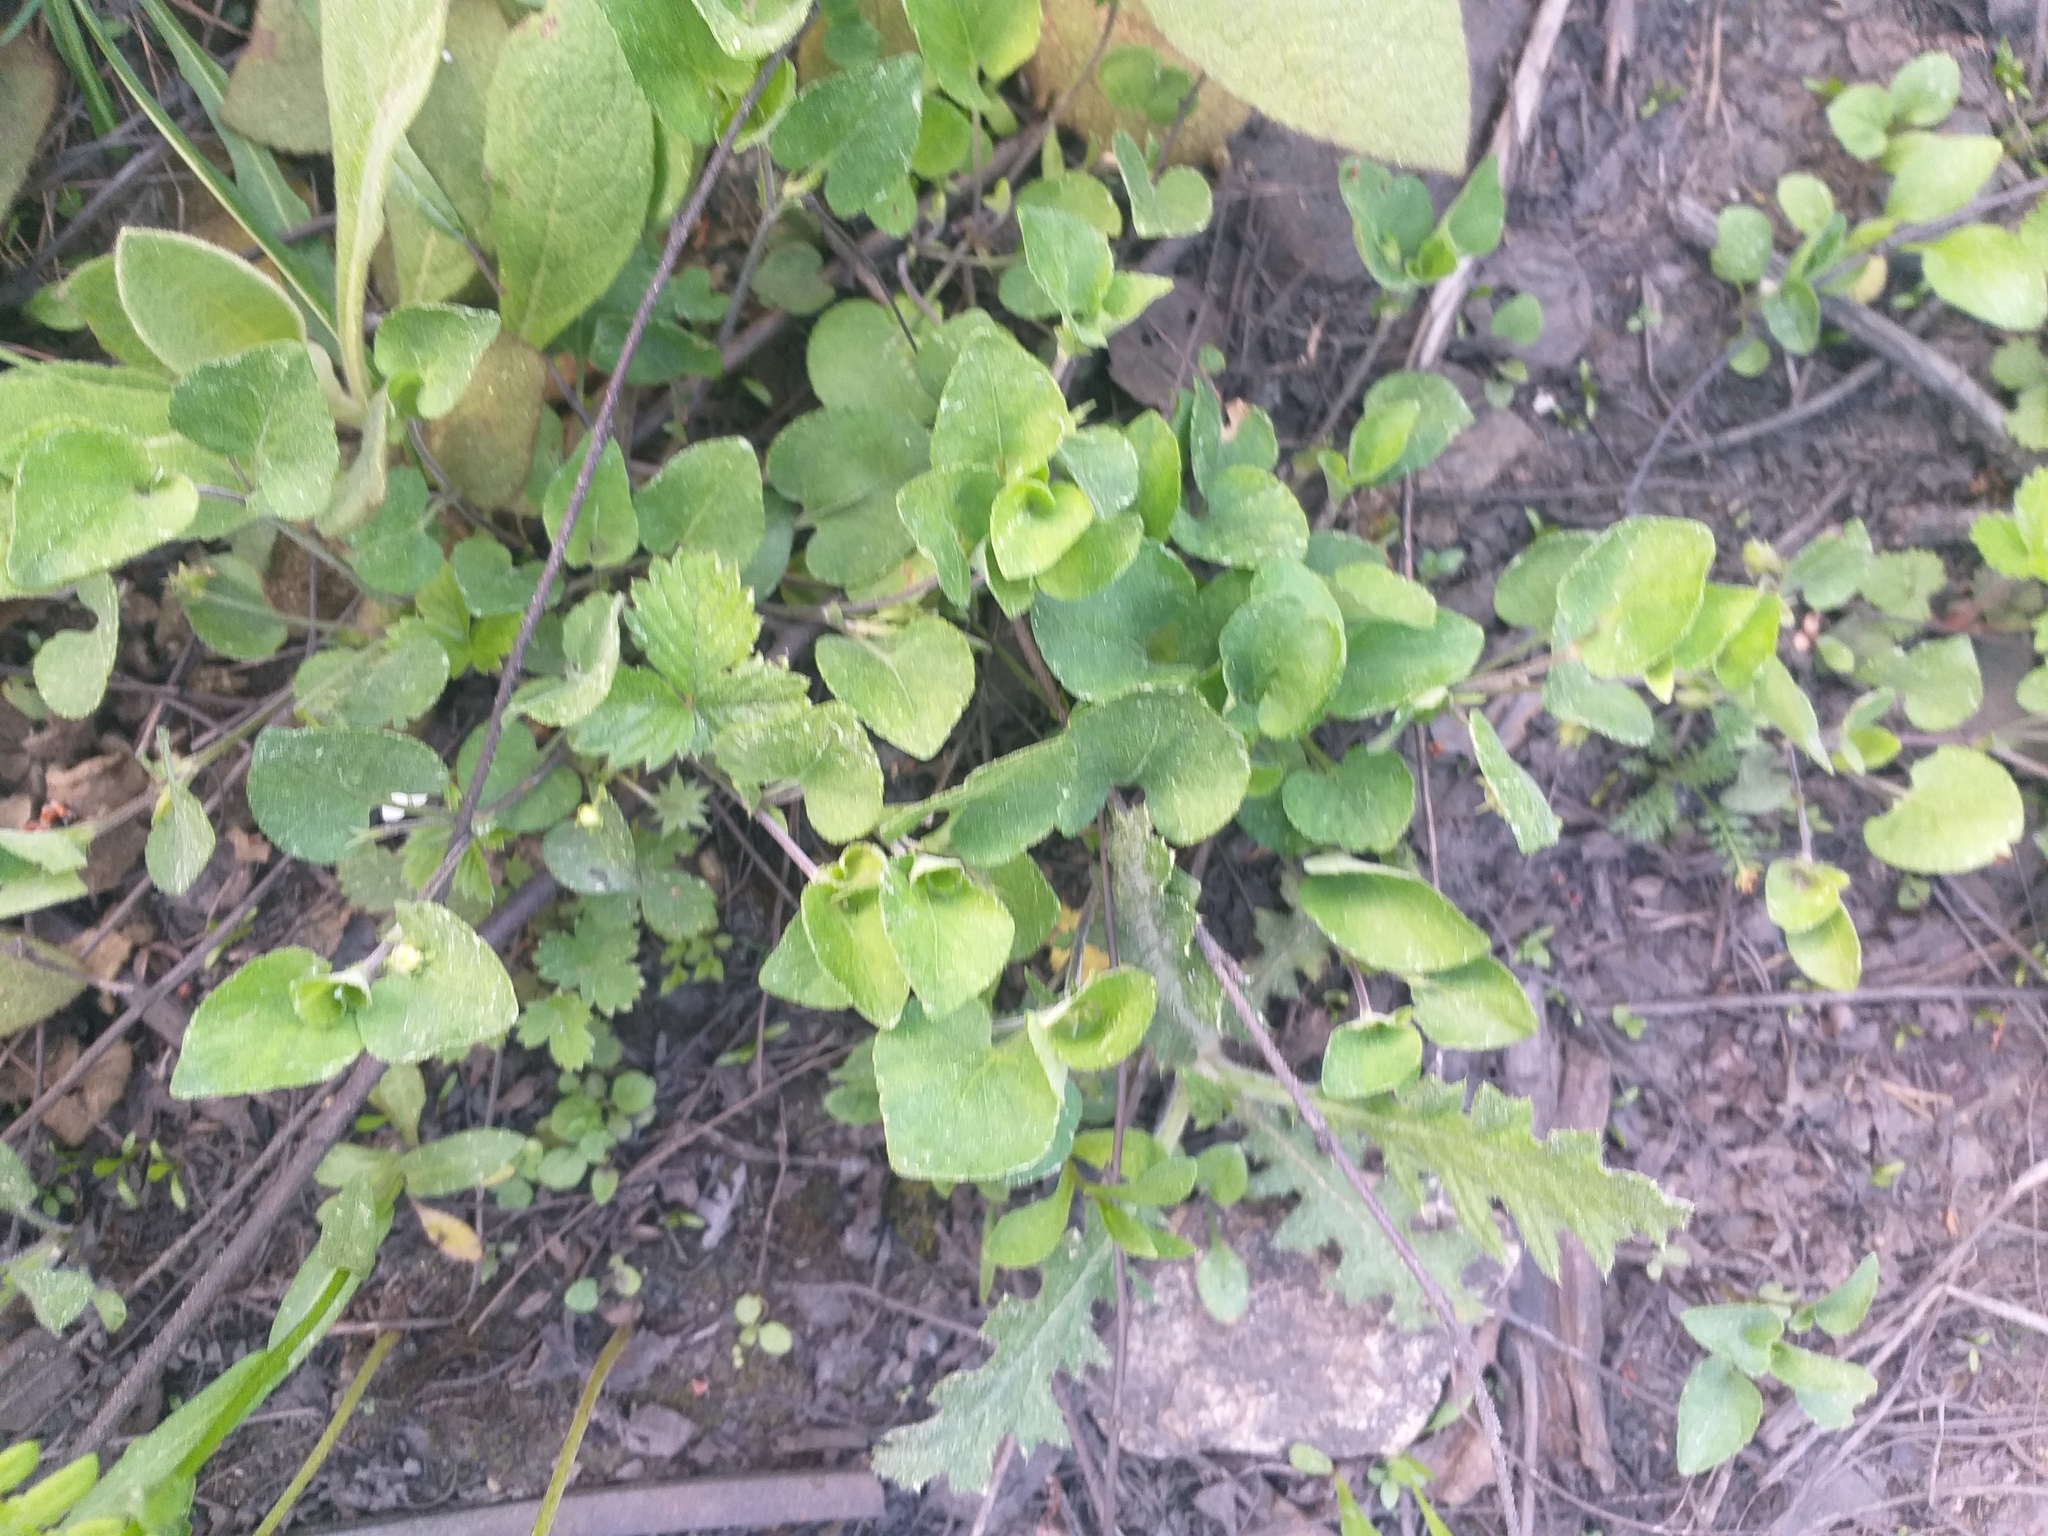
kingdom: Plantae
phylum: Tracheophyta
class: Magnoliopsida
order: Malpighiales
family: Violaceae
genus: Viola
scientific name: Viola rupestris
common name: Teesdale violet
